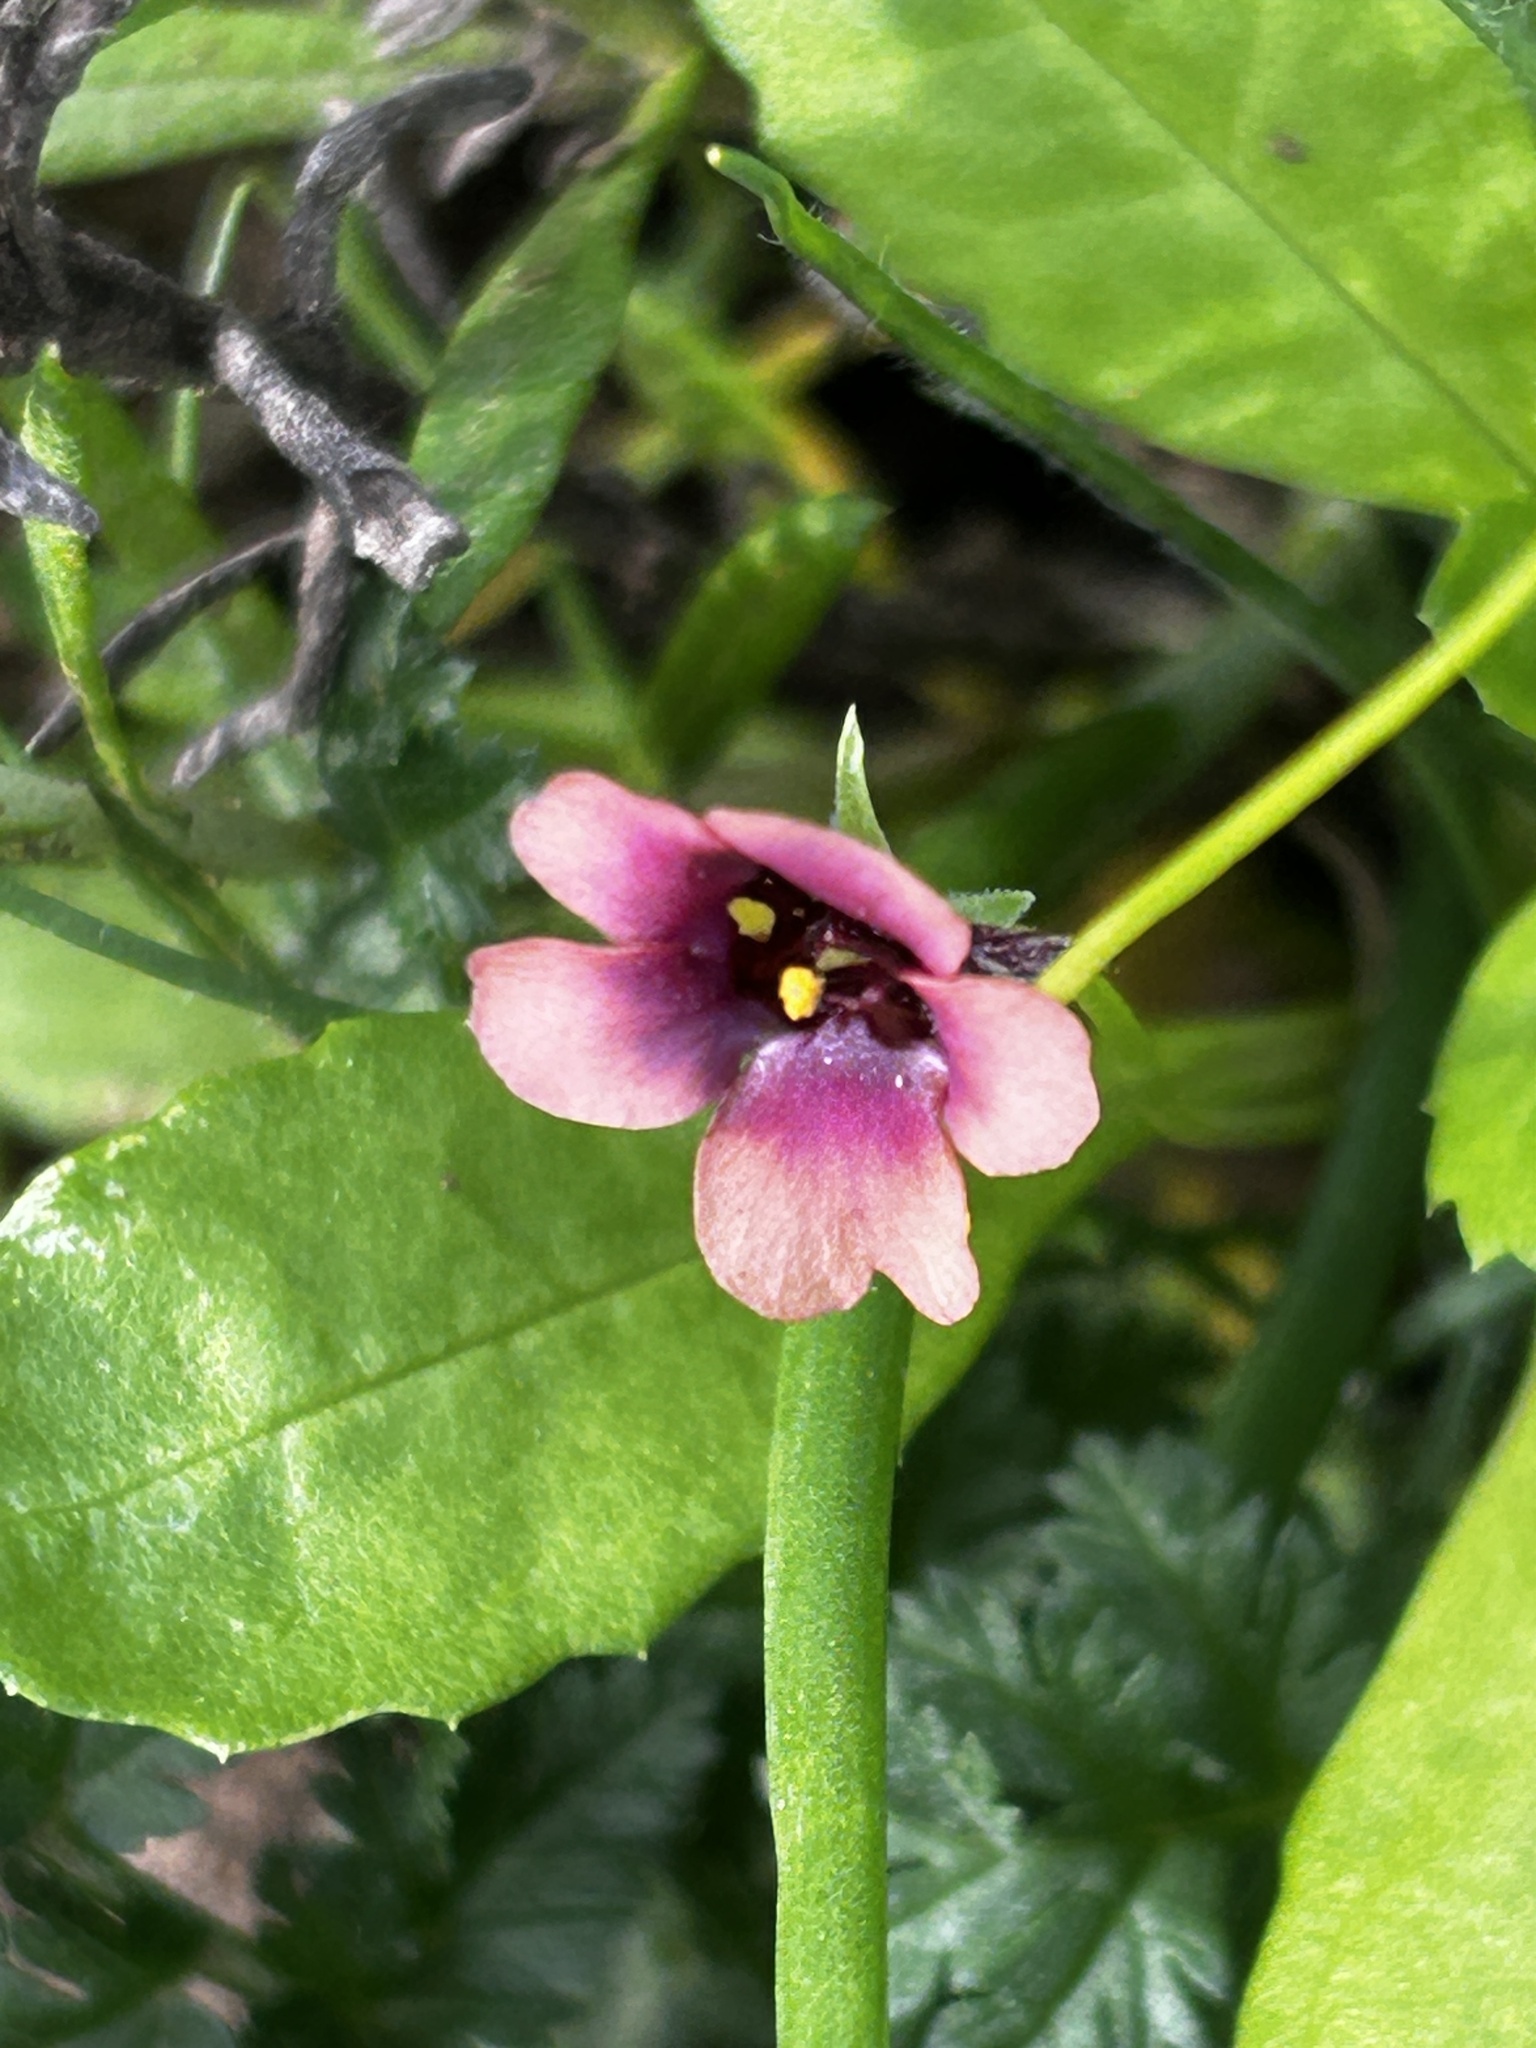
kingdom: Plantae
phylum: Tracheophyta
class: Magnoliopsida
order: Lamiales
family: Scrophulariaceae
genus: Diascia
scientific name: Diascia capensis
